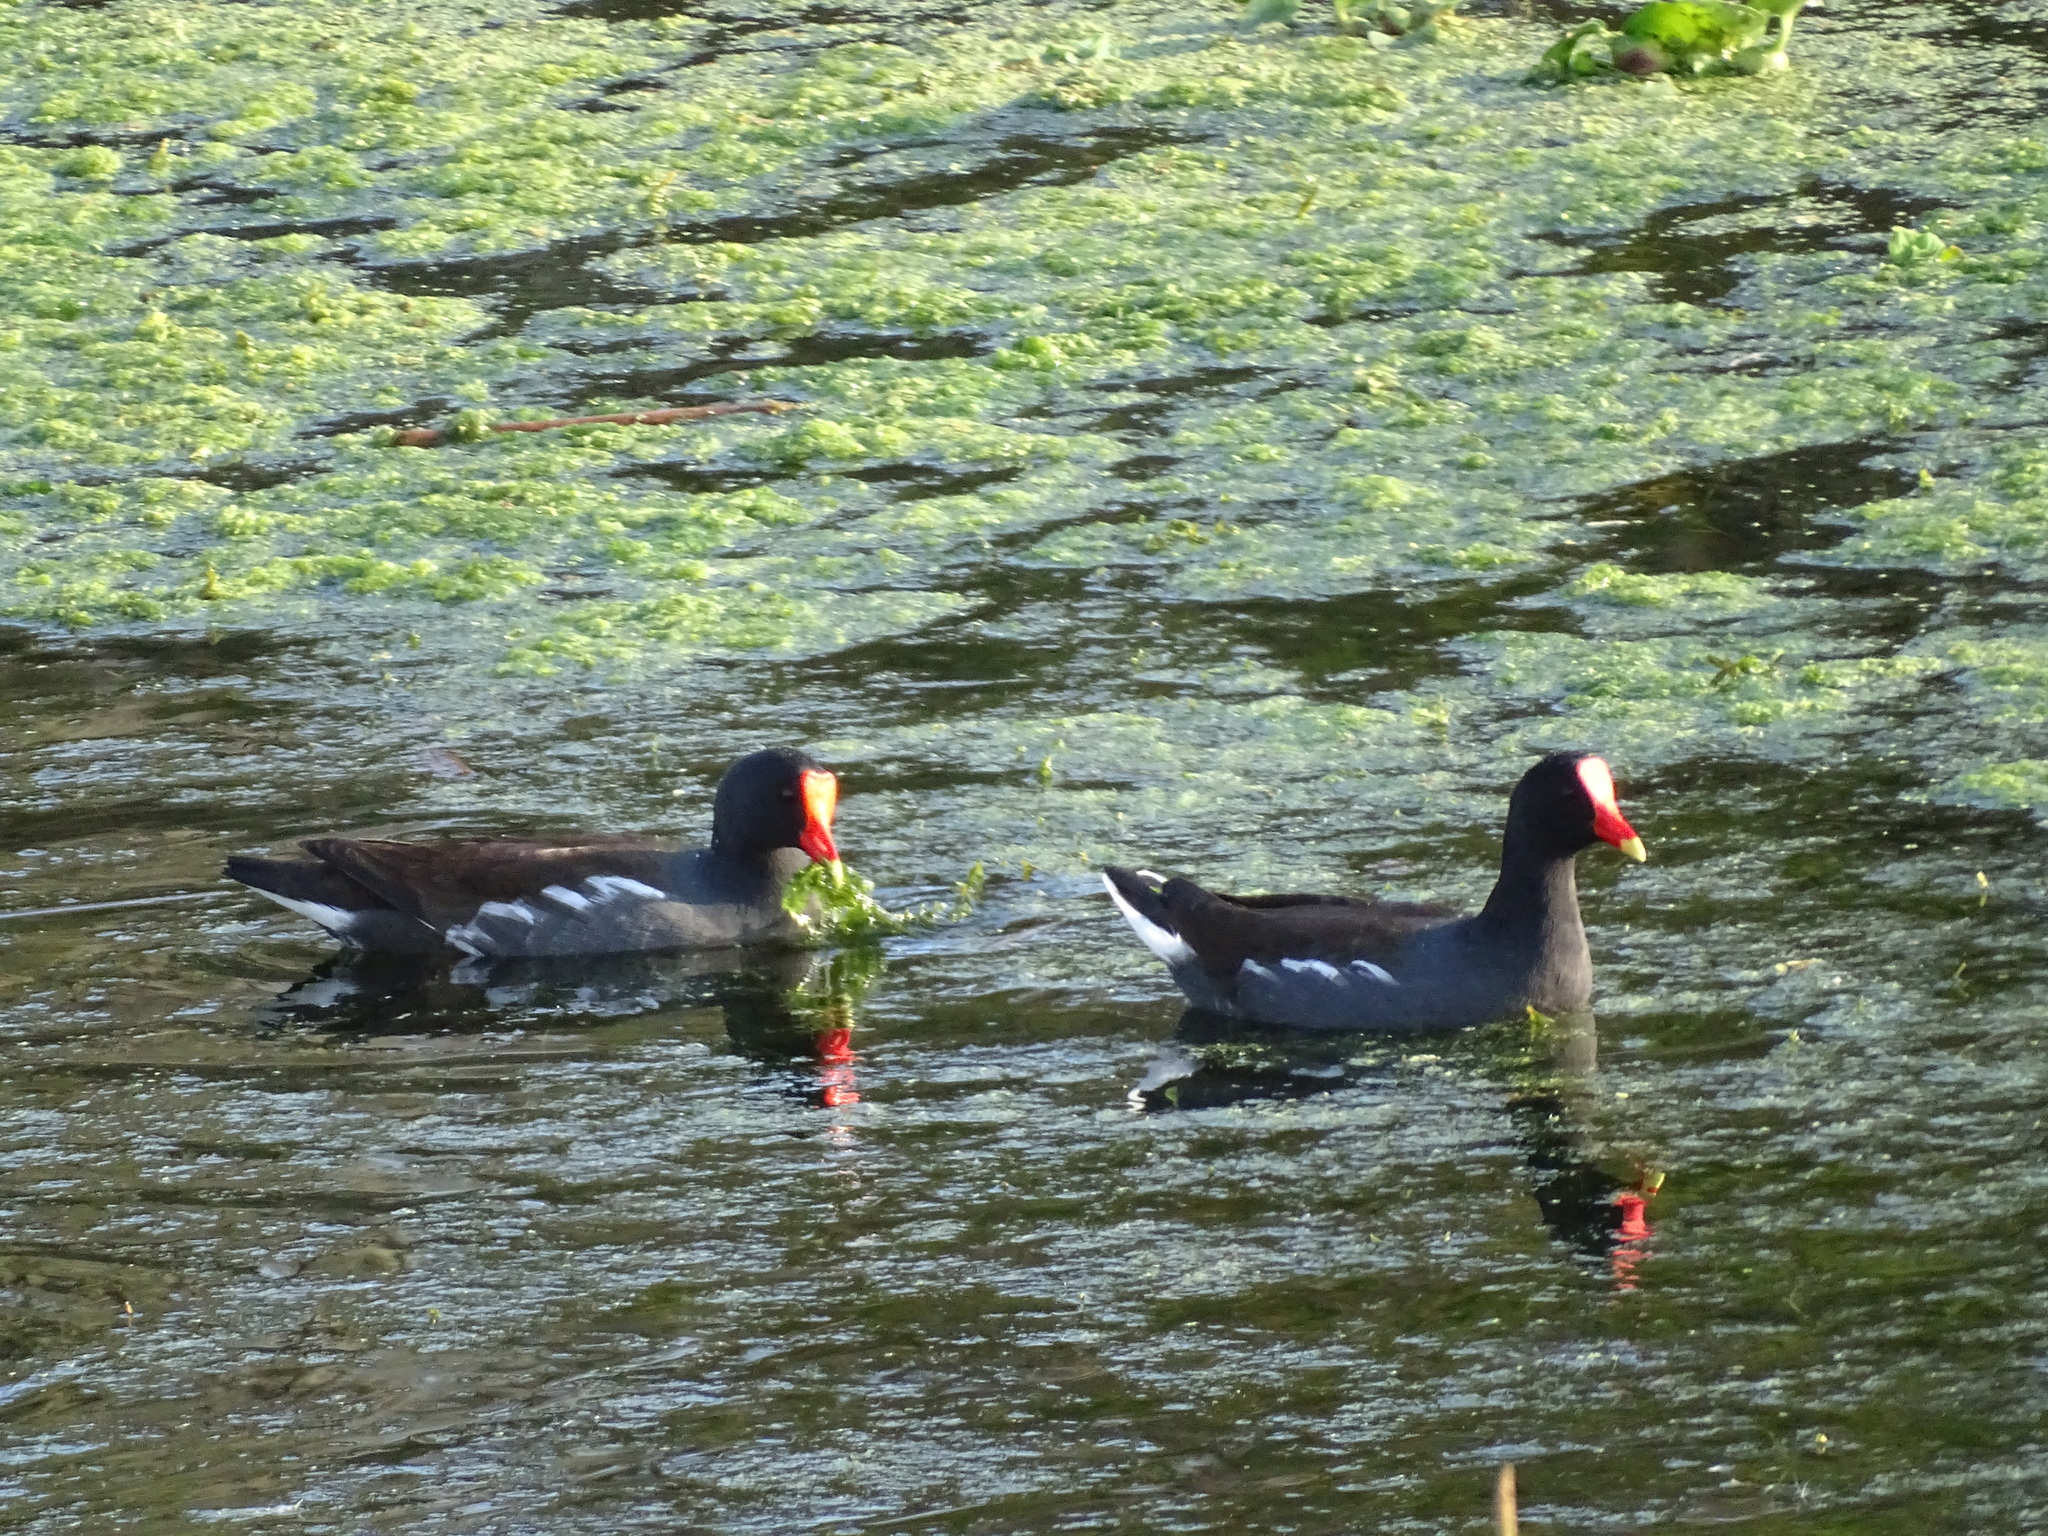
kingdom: Animalia
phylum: Chordata
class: Aves
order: Gruiformes
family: Rallidae
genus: Gallinula
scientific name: Gallinula chloropus
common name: Common moorhen
